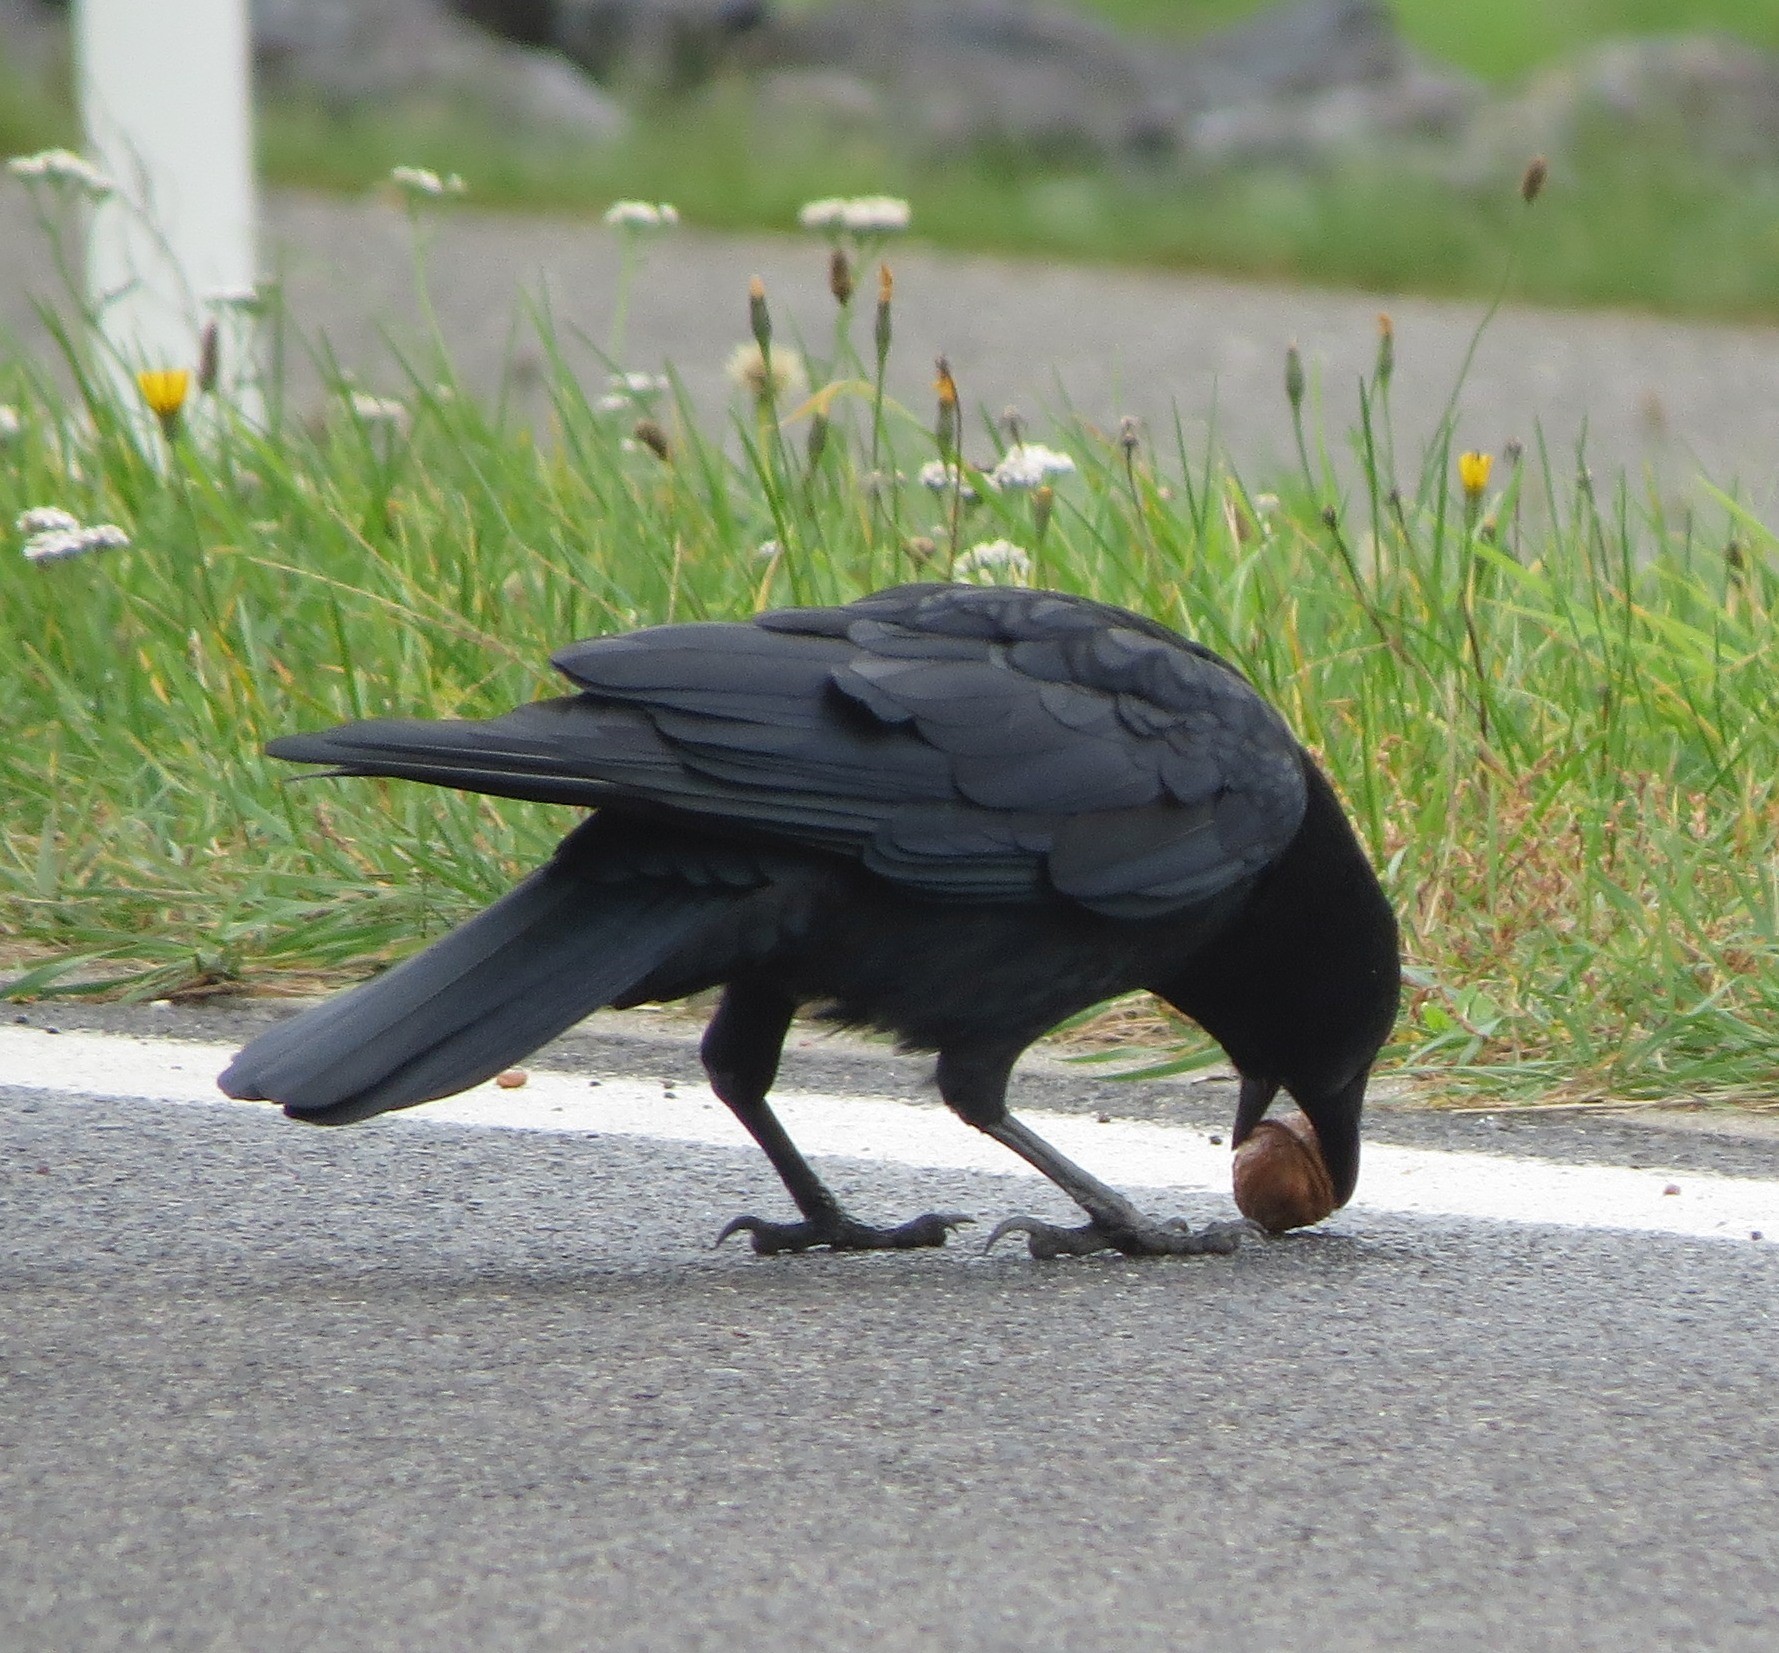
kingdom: Animalia
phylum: Chordata
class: Aves
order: Passeriformes
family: Corvidae
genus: Corvus
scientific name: Corvus corone
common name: Carrion crow
